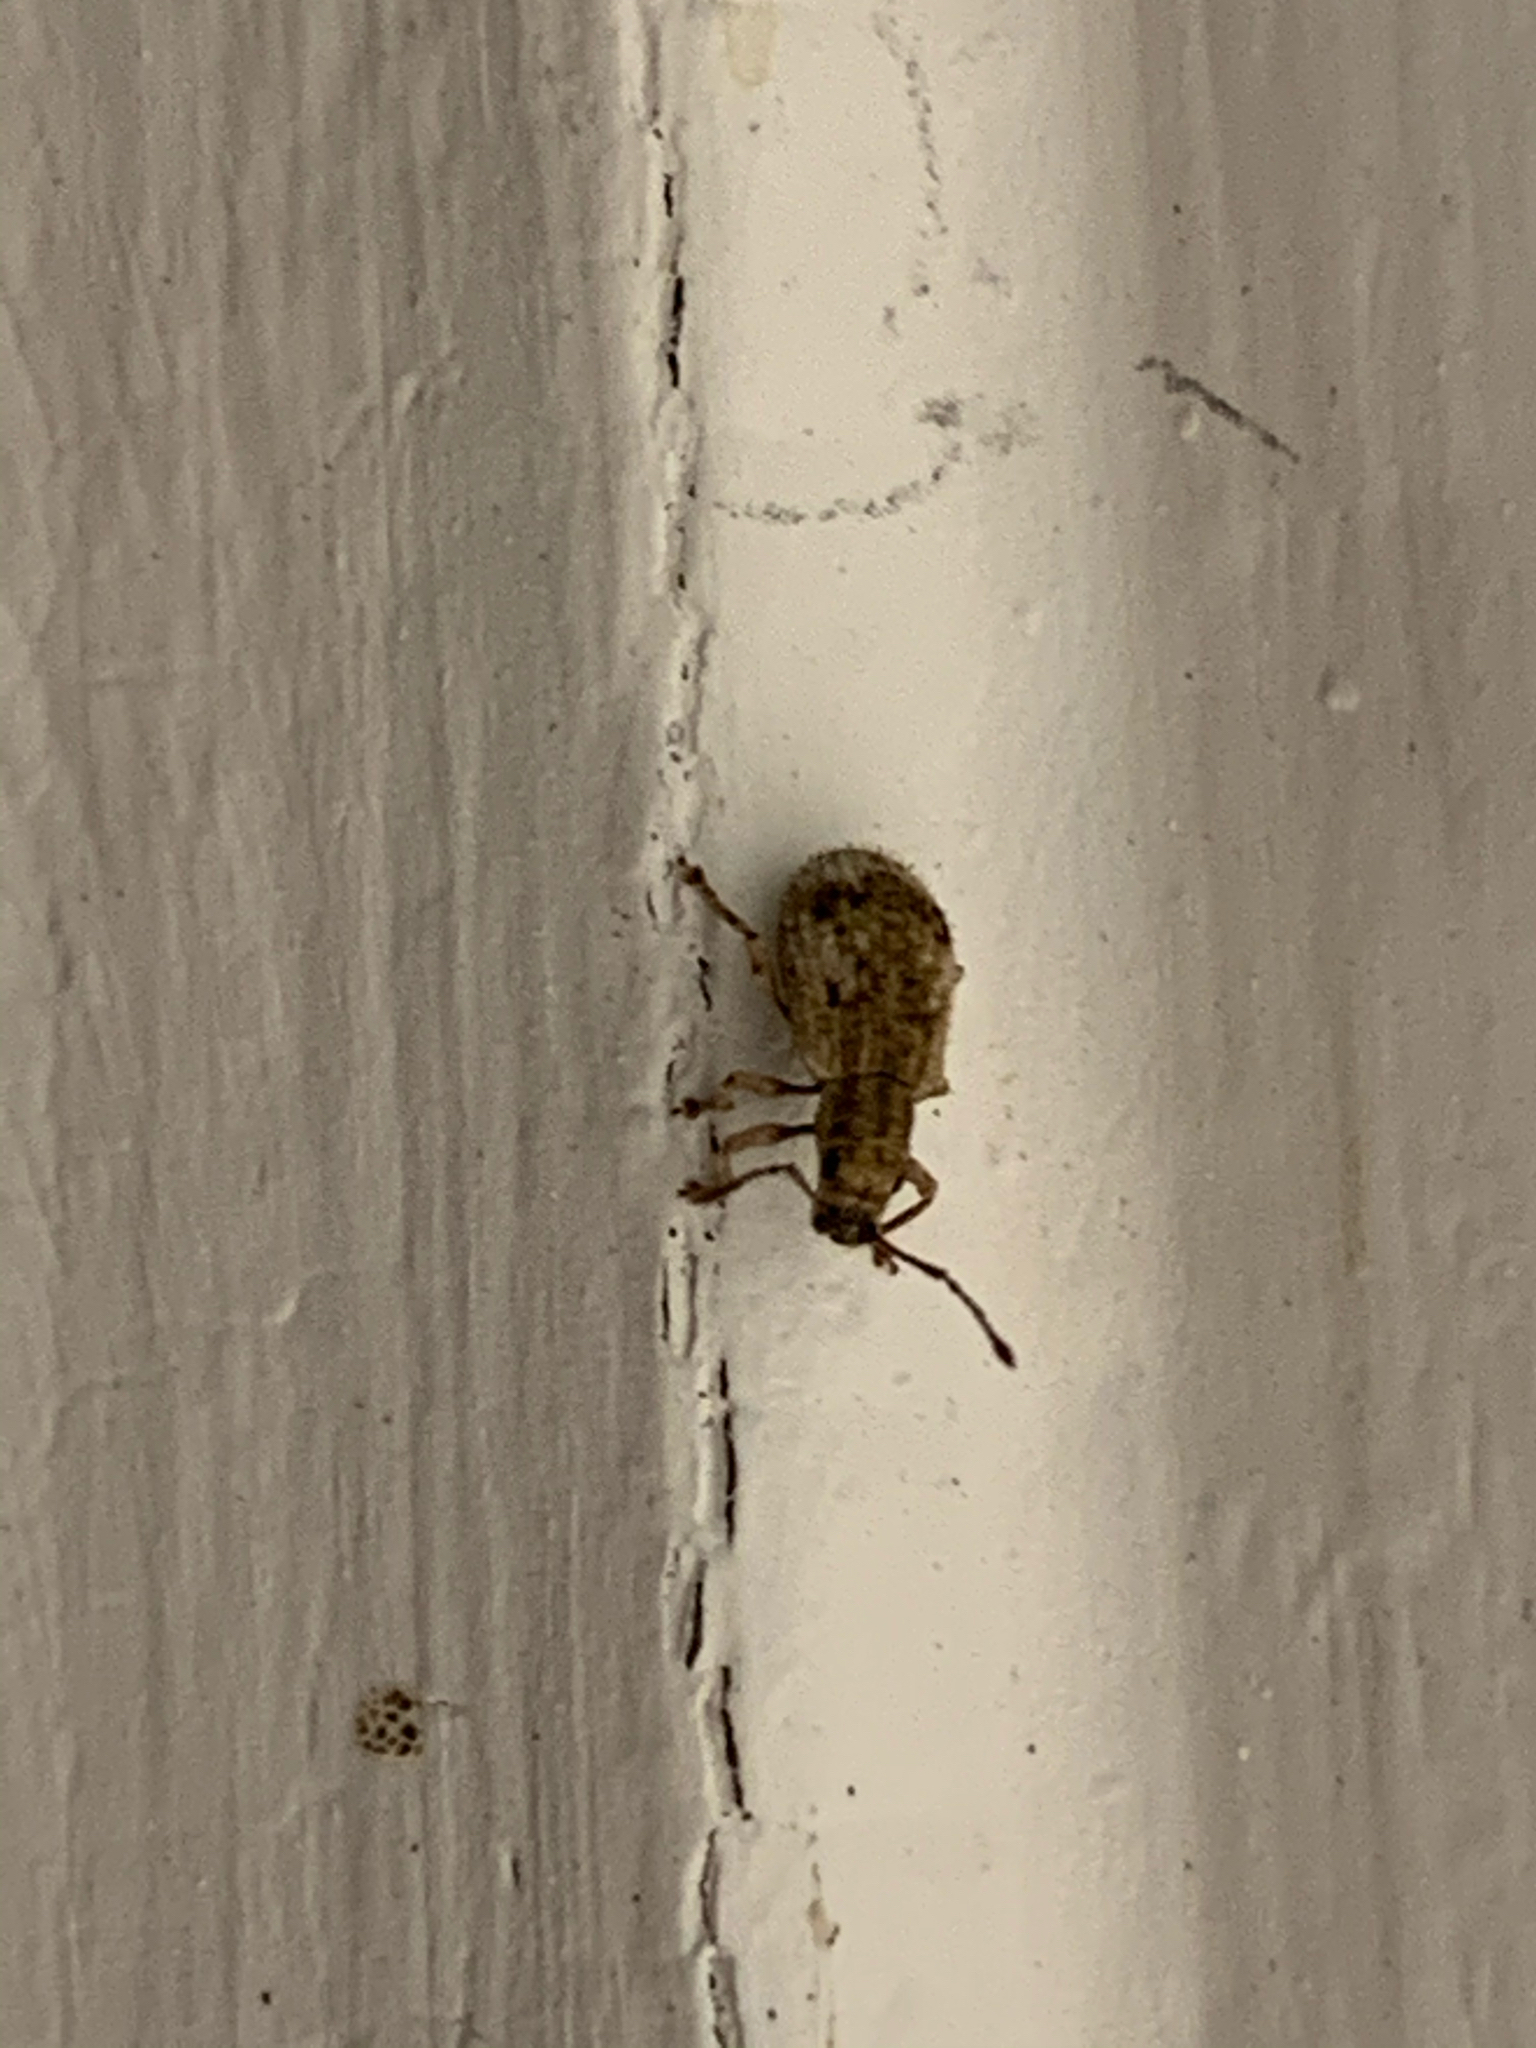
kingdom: Animalia
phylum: Arthropoda
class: Insecta
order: Coleoptera
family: Curculionidae
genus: Pseudoedophrys
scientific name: Pseudoedophrys hilleri
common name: Weevil
